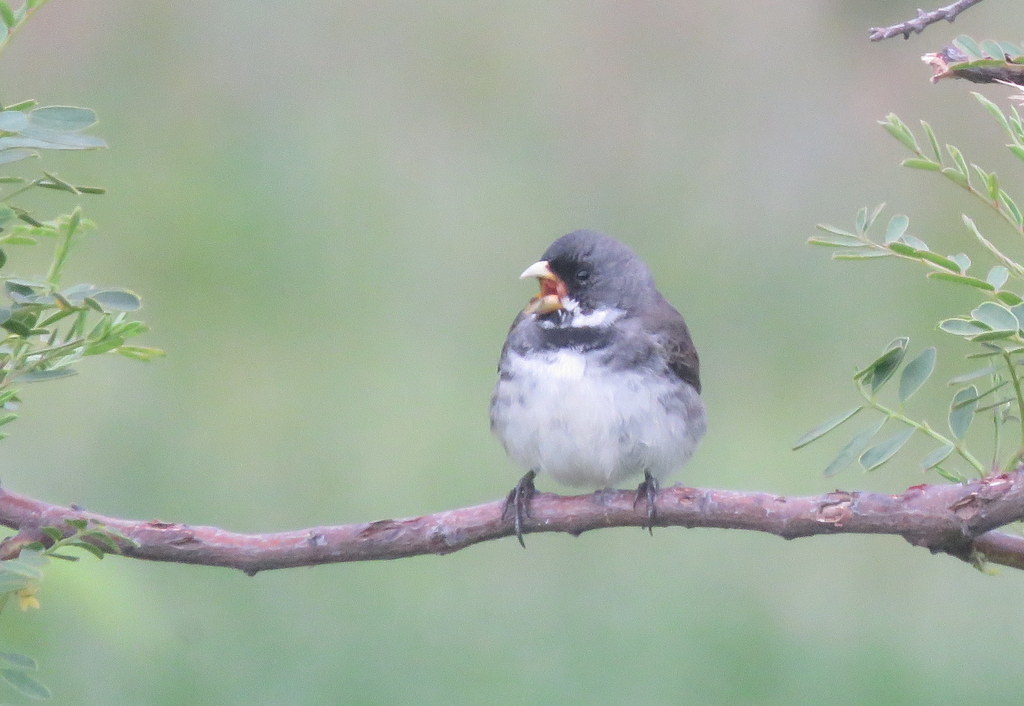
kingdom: Animalia
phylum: Chordata
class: Aves
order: Passeriformes
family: Thraupidae
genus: Sporophila
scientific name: Sporophila caerulescens
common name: Double-collared seedeater
